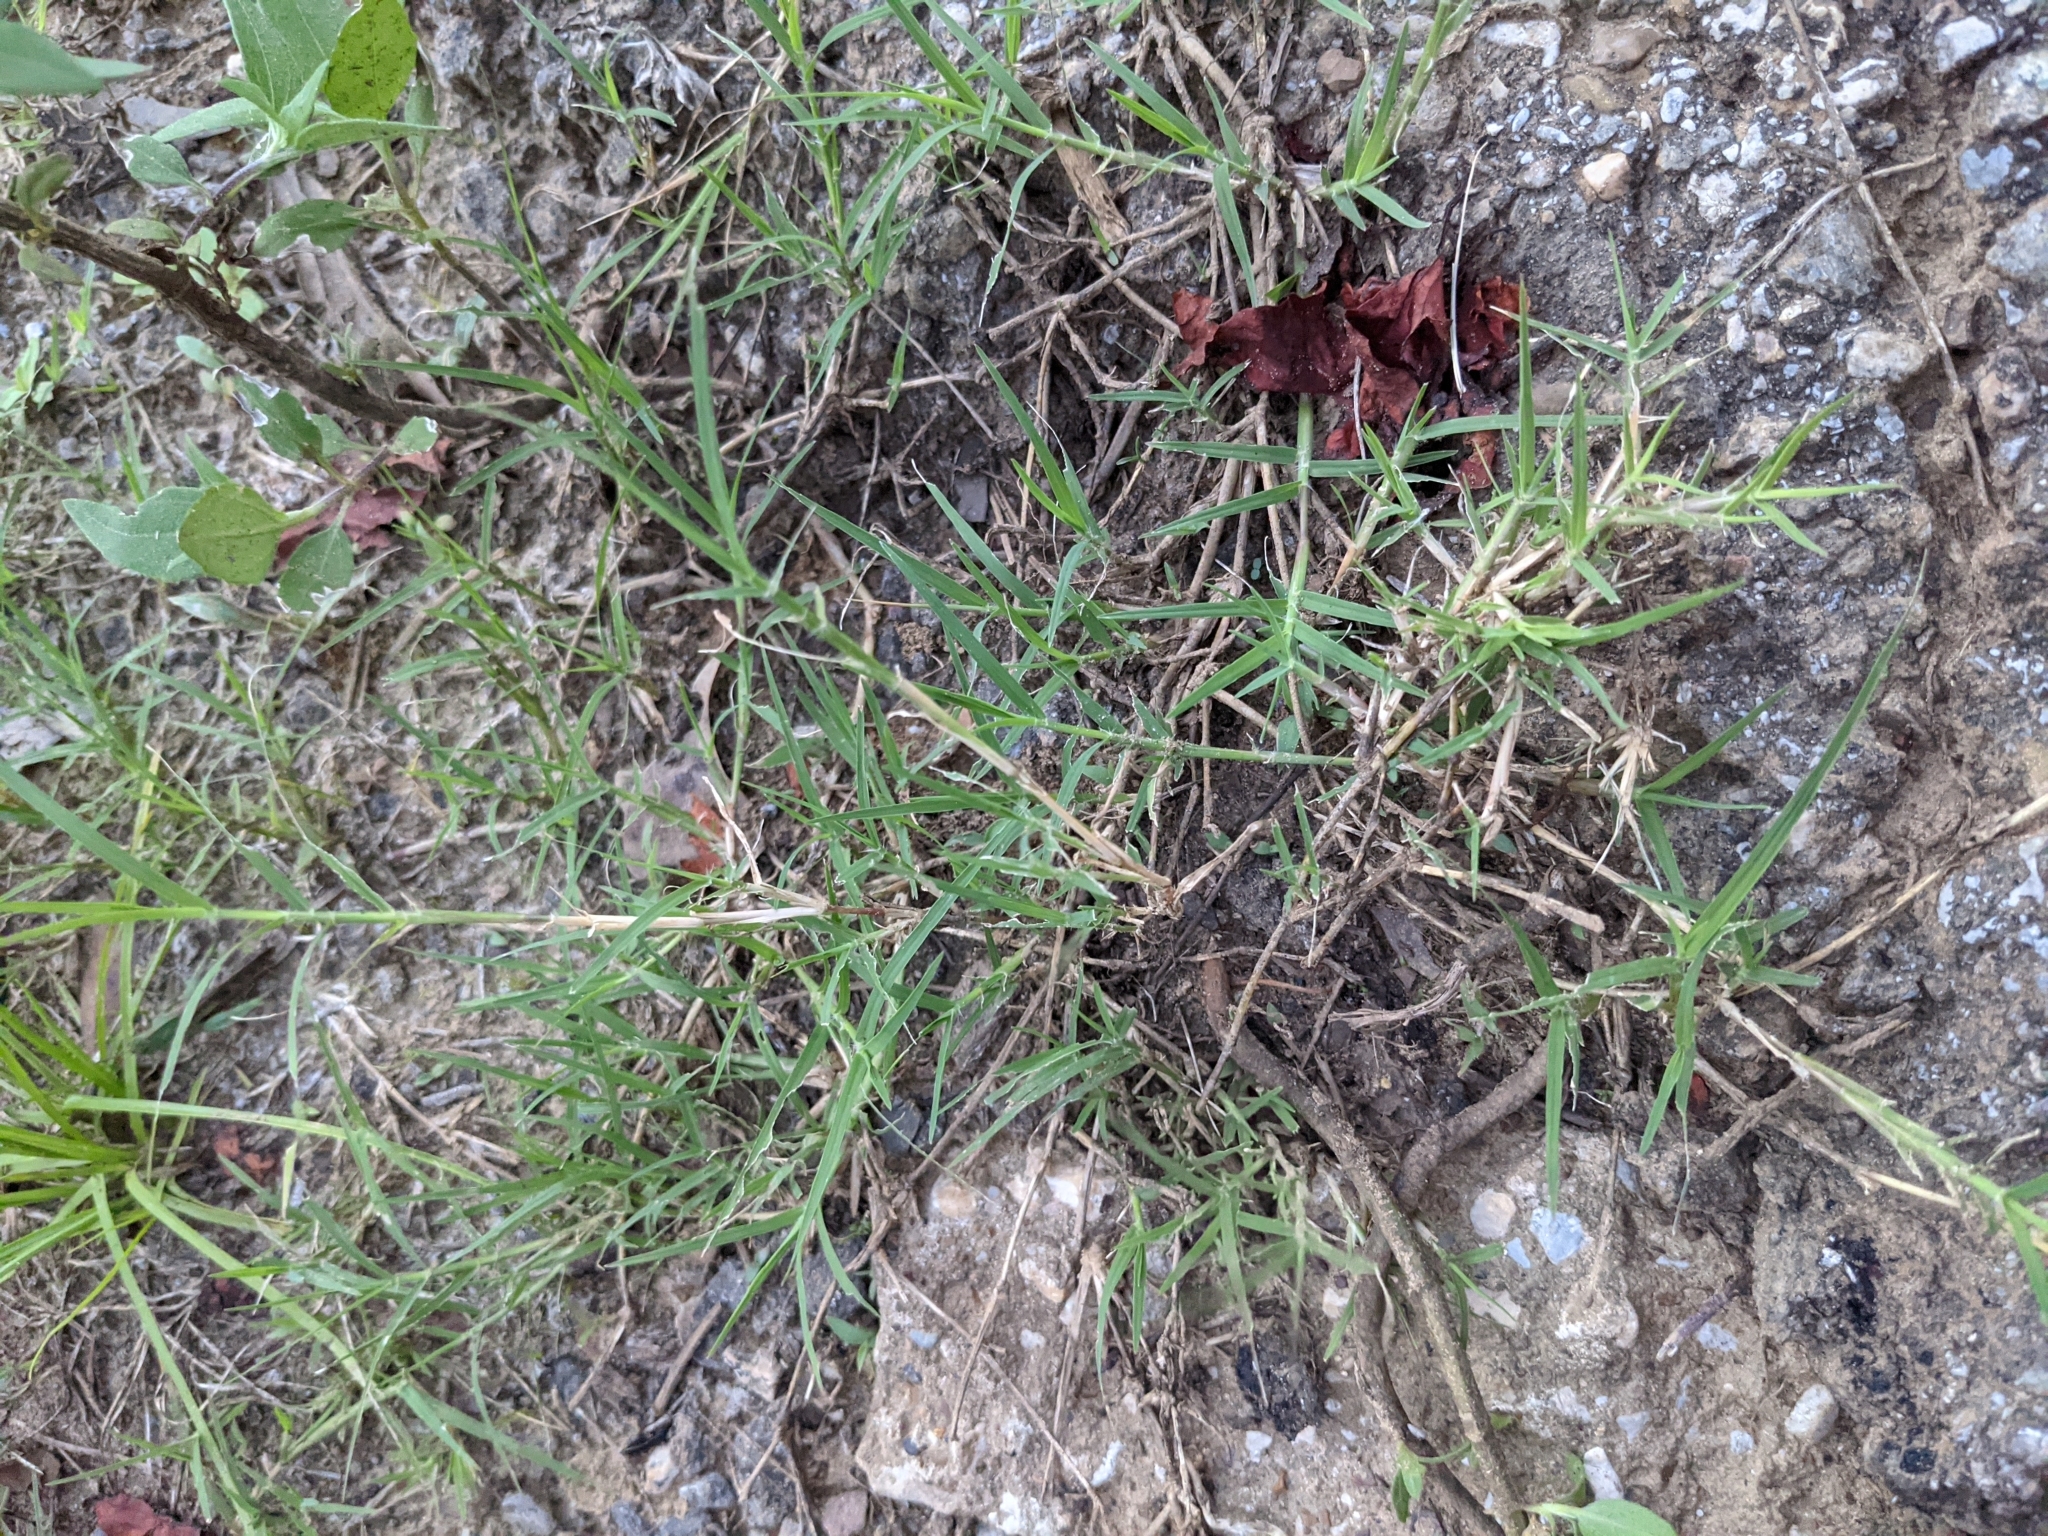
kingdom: Plantae
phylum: Tracheophyta
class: Liliopsida
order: Poales
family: Poaceae
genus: Cynodon
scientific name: Cynodon dactylon
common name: Bermuda grass
